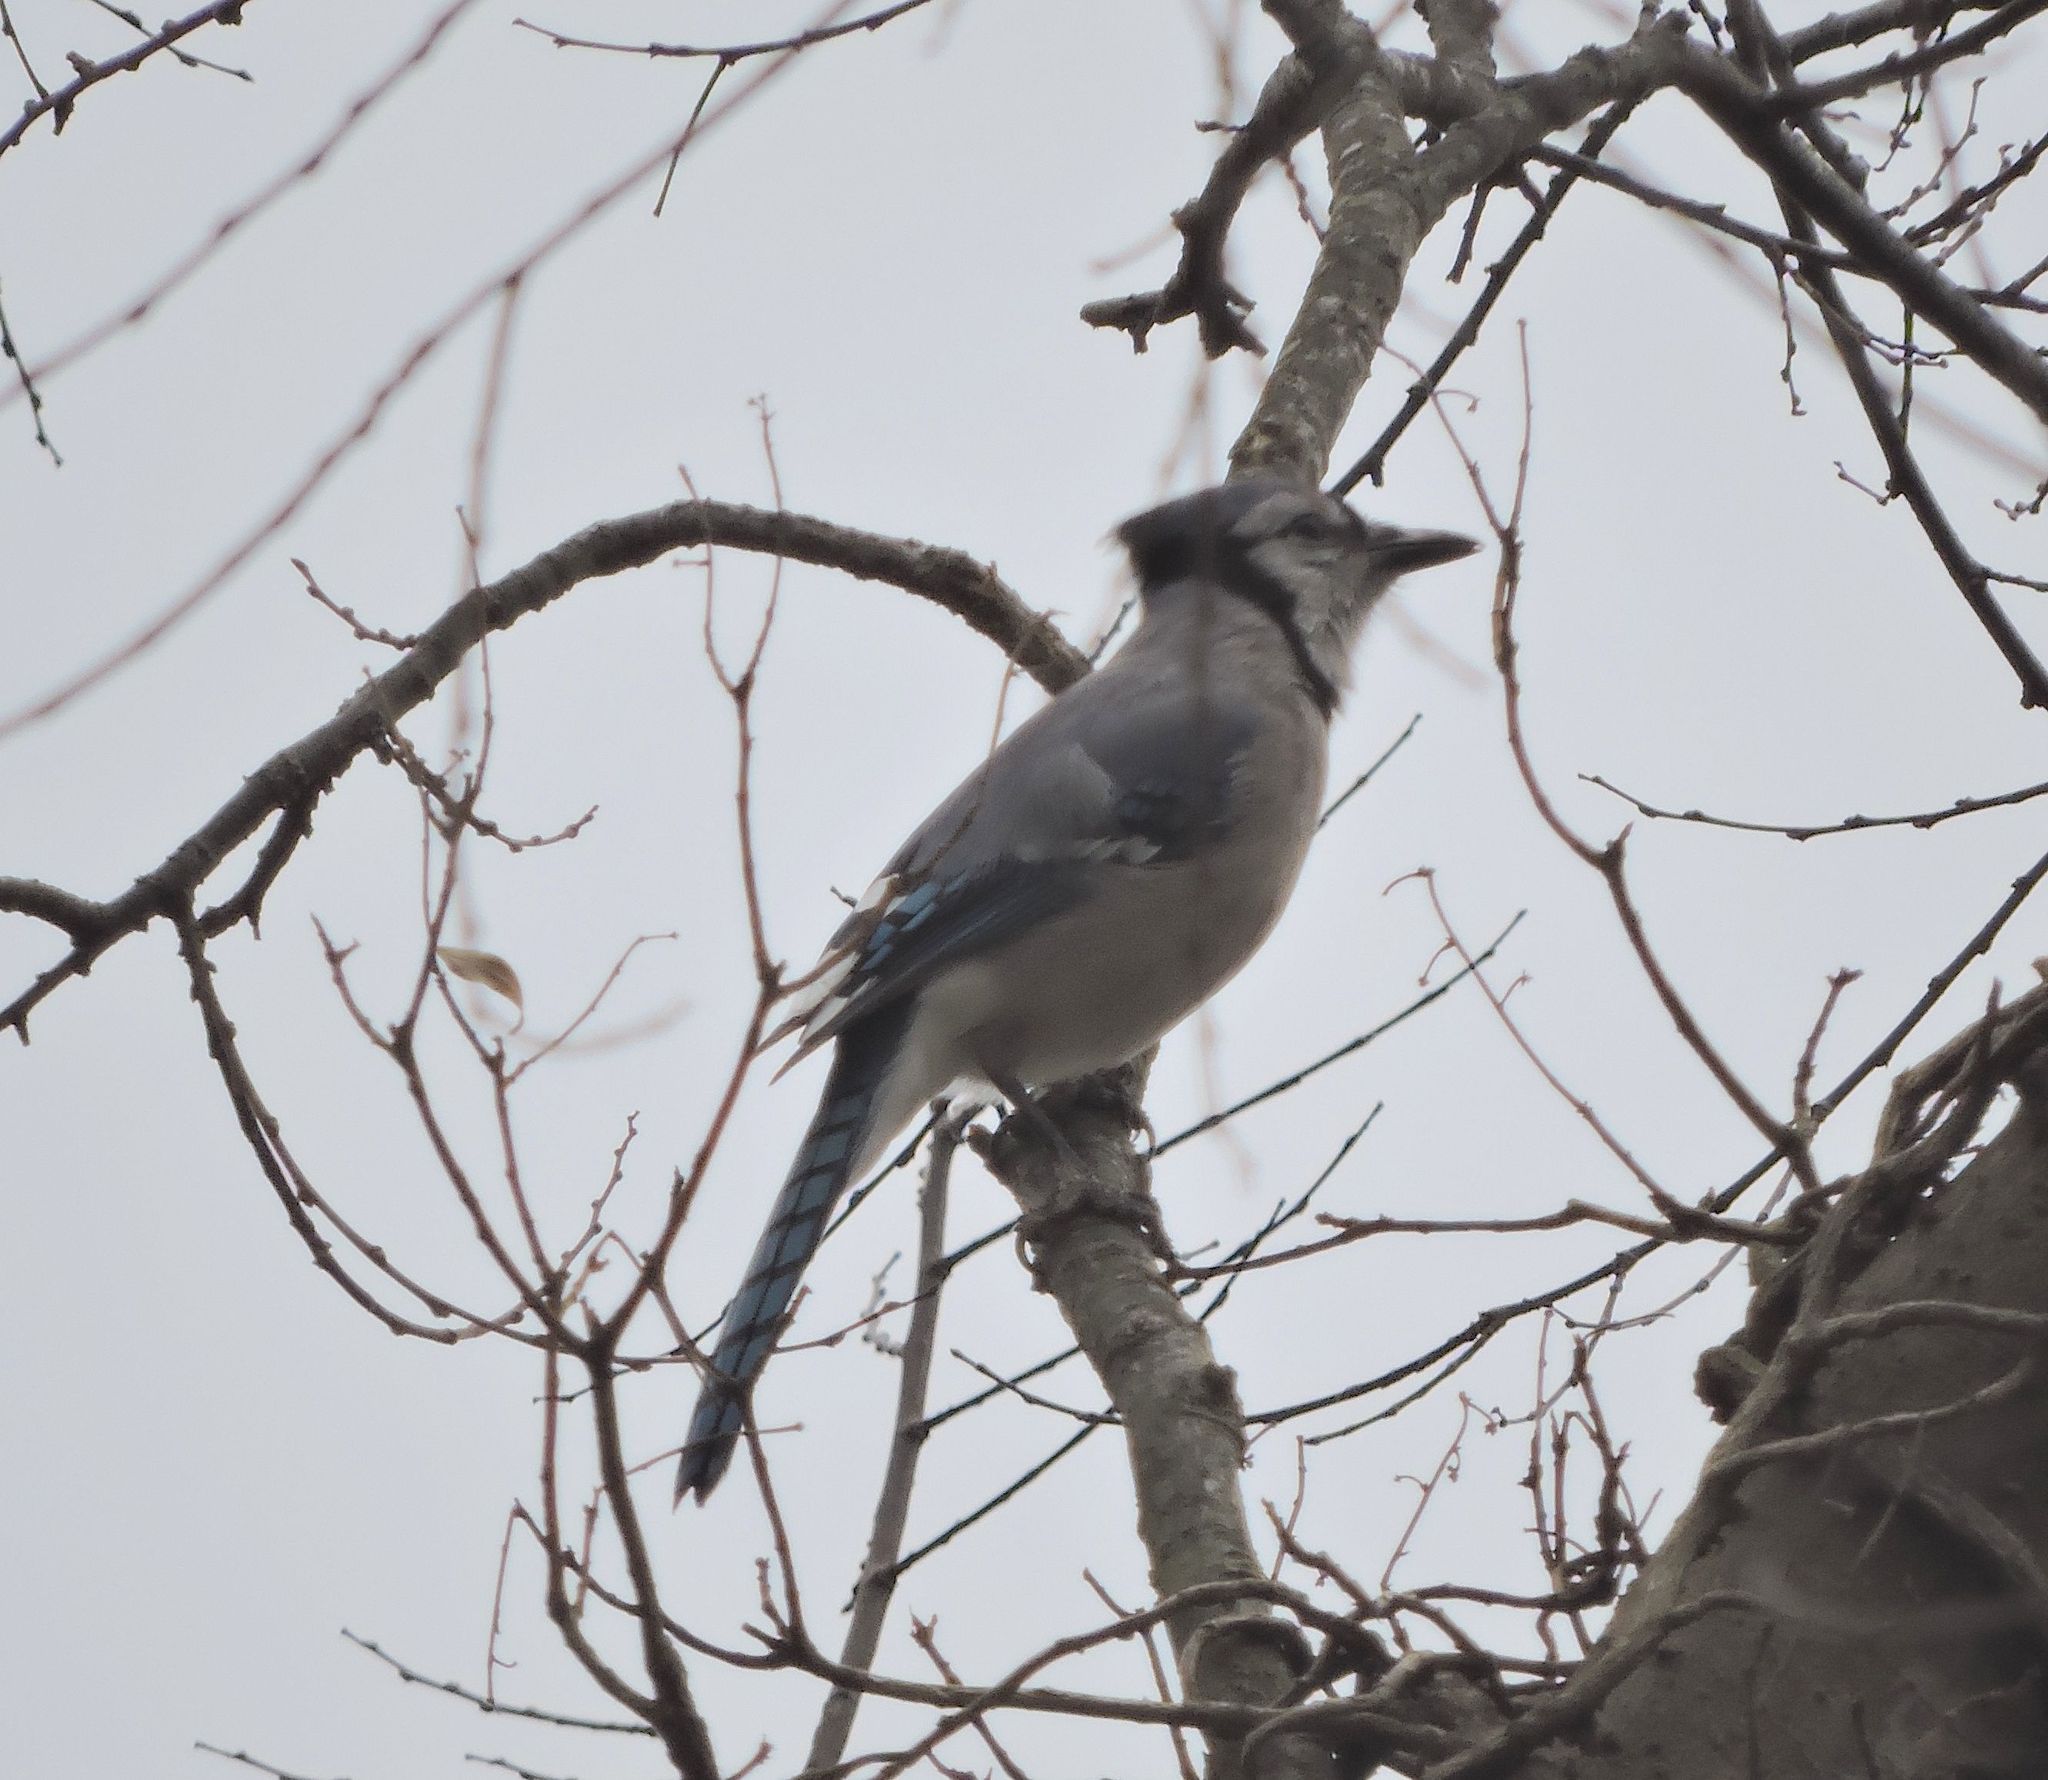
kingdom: Animalia
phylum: Chordata
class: Aves
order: Passeriformes
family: Corvidae
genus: Cyanocitta
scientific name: Cyanocitta cristata
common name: Blue jay
